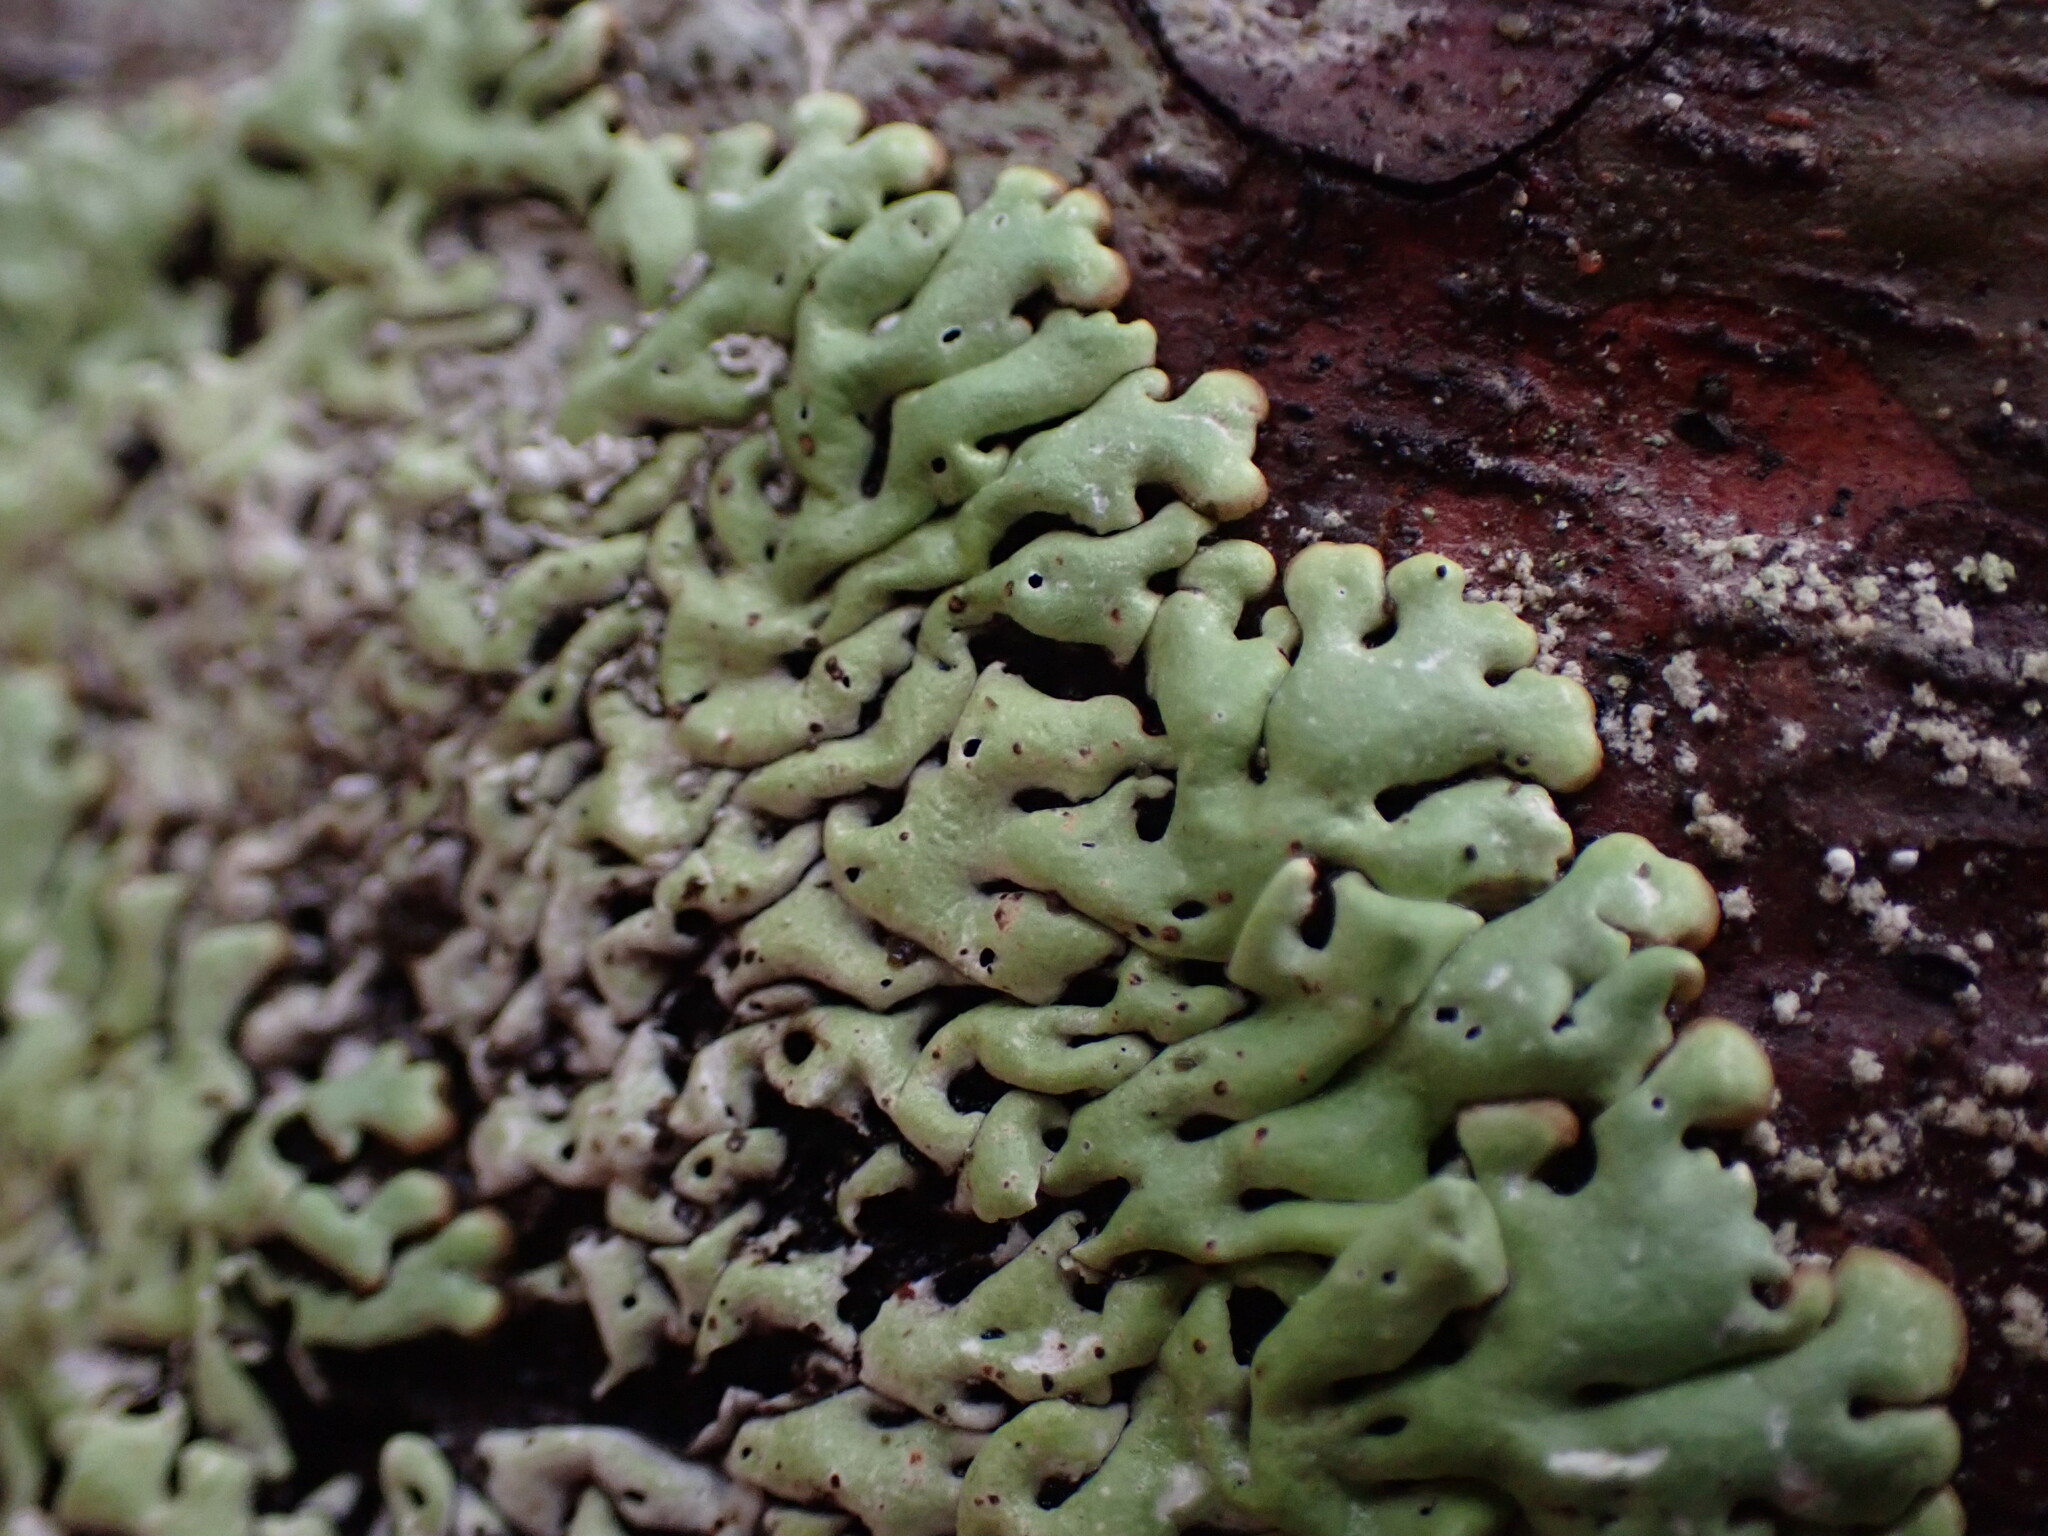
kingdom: Fungi
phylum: Ascomycota
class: Lecanoromycetes
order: Lecanorales
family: Parmeliaceae
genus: Menegazzia
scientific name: Menegazzia subsimilis
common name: Tree flute lichen
